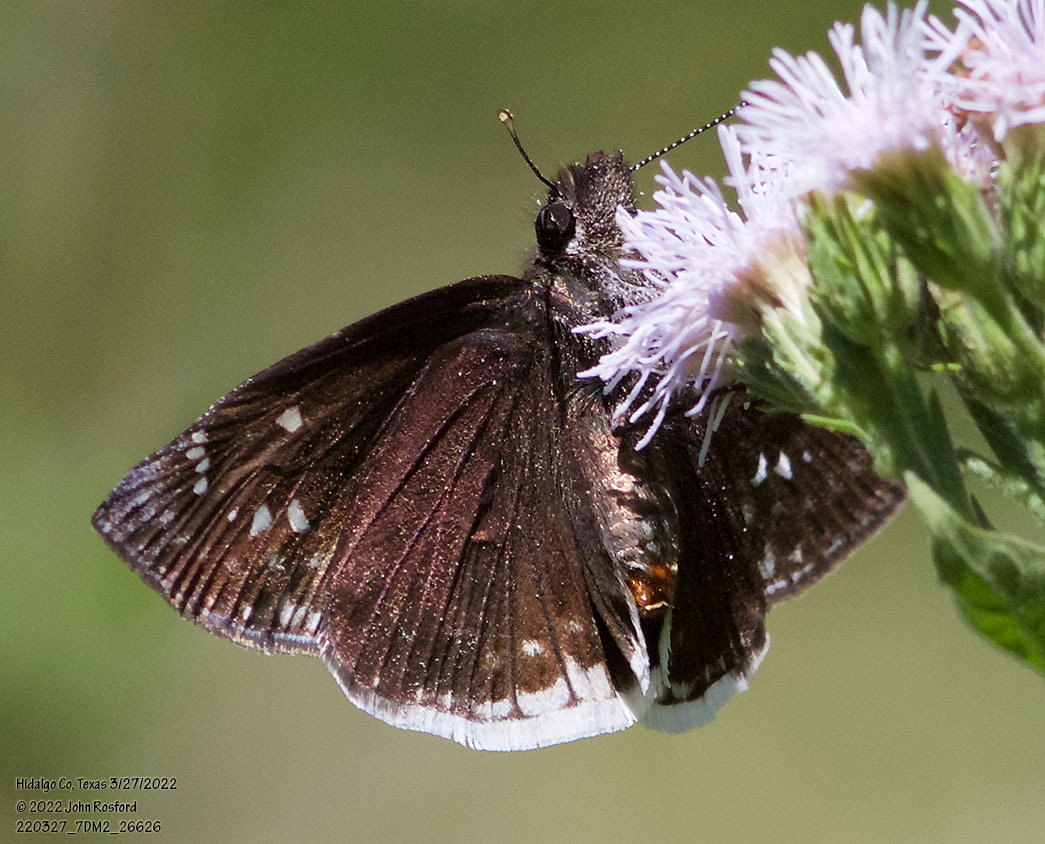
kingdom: Animalia
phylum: Arthropoda
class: Insecta
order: Lepidoptera
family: Hesperiidae
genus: Erynnis
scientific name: Erynnis tristis
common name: Mournful duskywing
